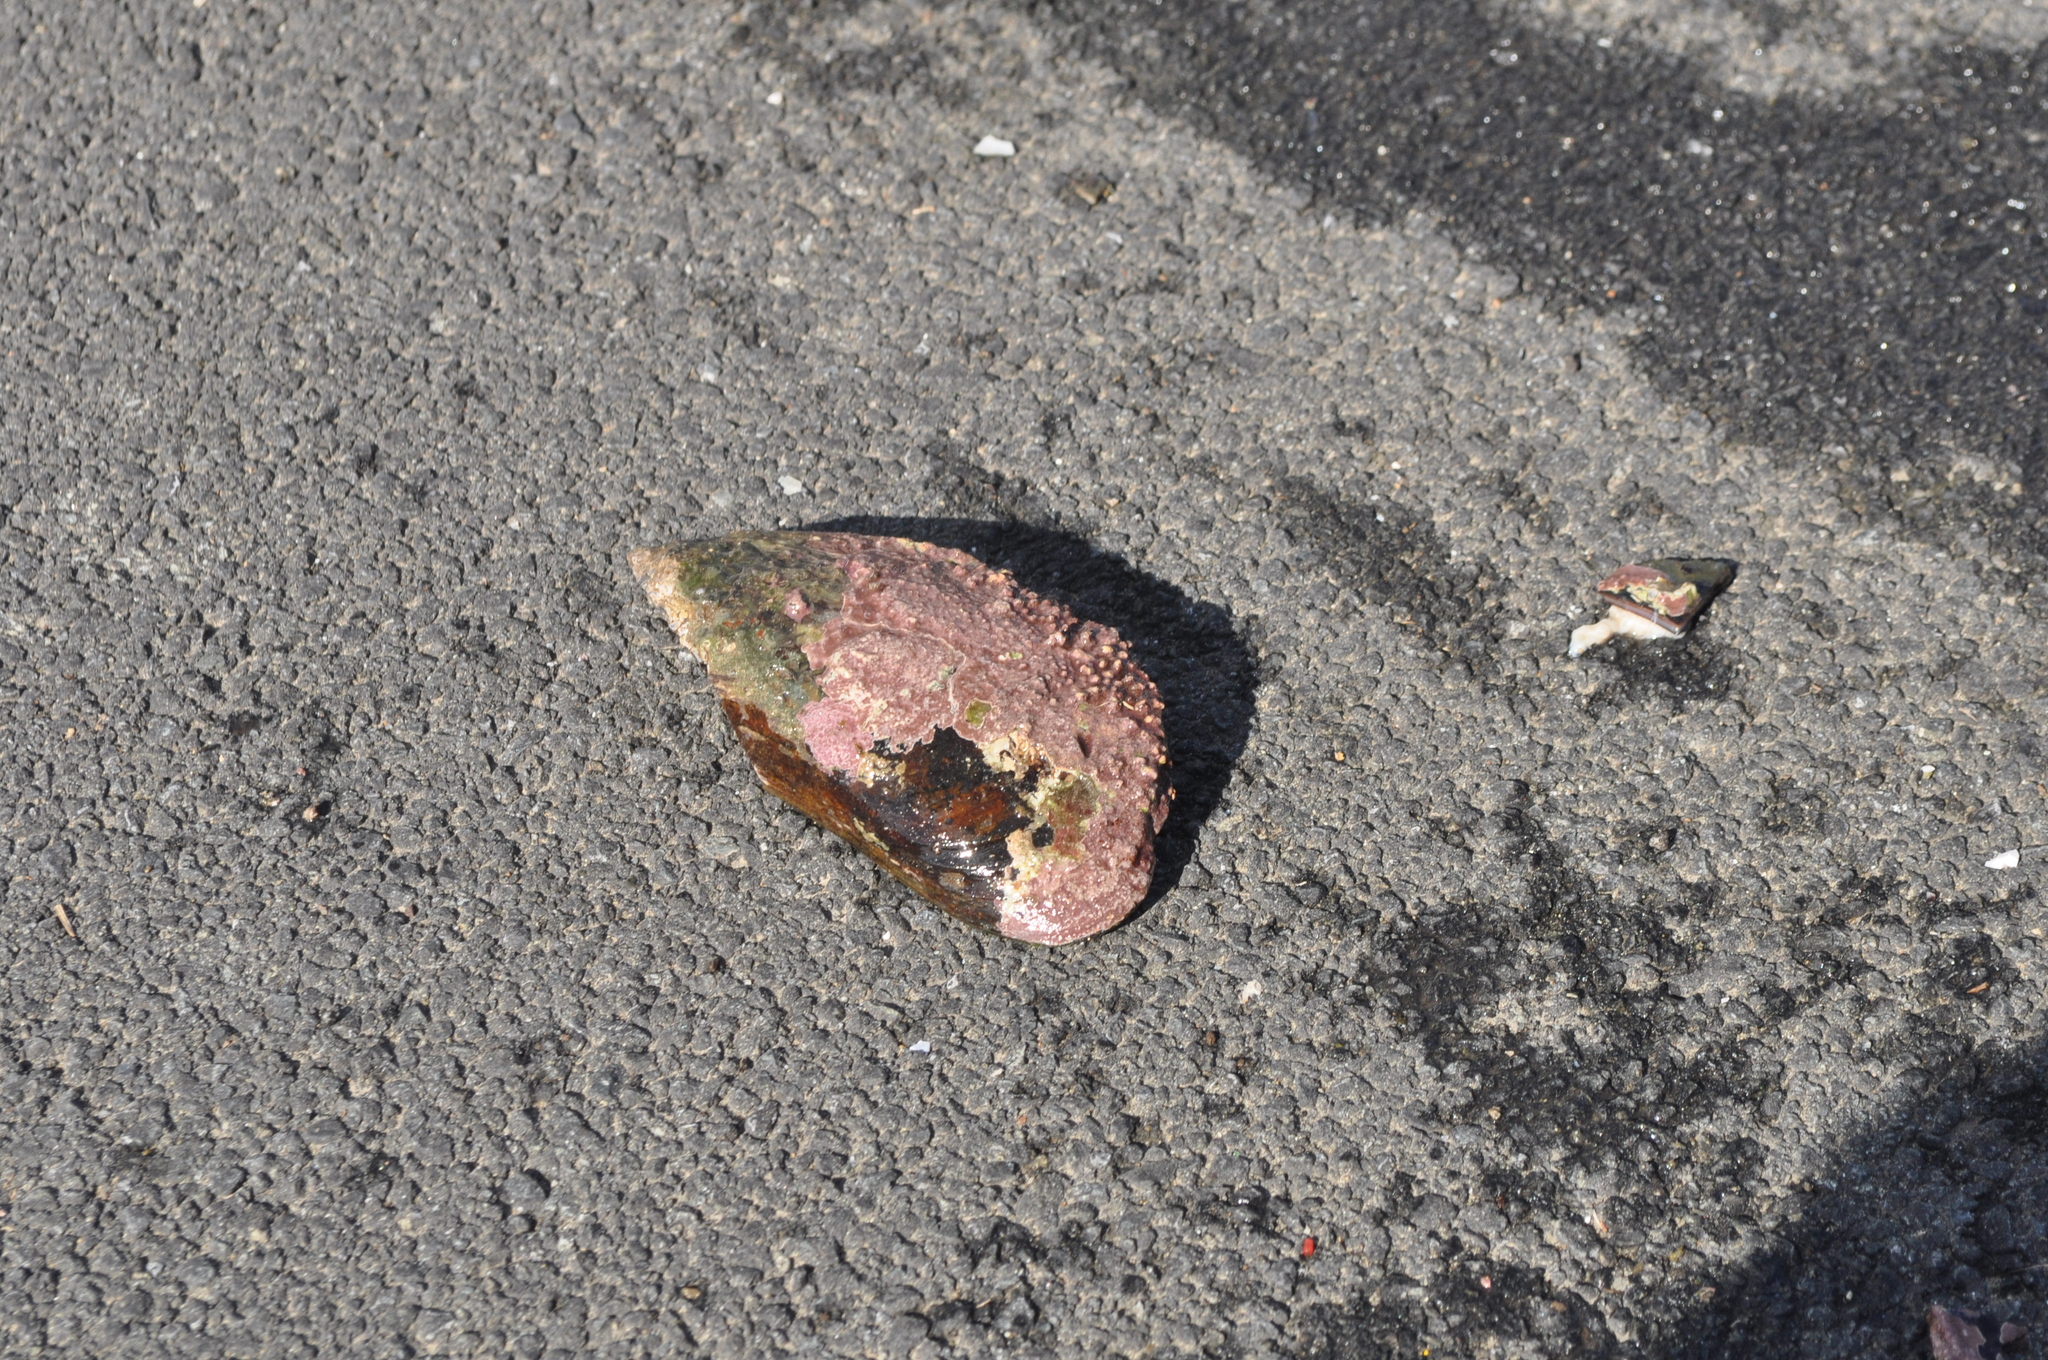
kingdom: Animalia
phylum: Mollusca
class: Bivalvia
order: Mytilida
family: Mytilidae
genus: Perna
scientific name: Perna canaliculus
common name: New zealand greenshelltm
